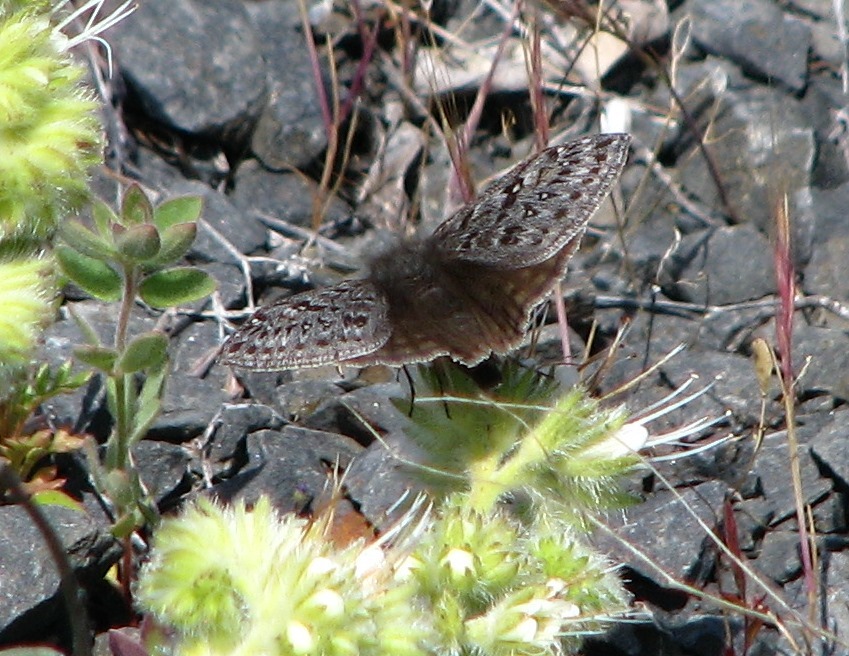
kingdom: Animalia
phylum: Arthropoda
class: Insecta
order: Lepidoptera
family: Hesperiidae
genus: Erynnis
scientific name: Erynnis propertius
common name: Propertius duskywing
